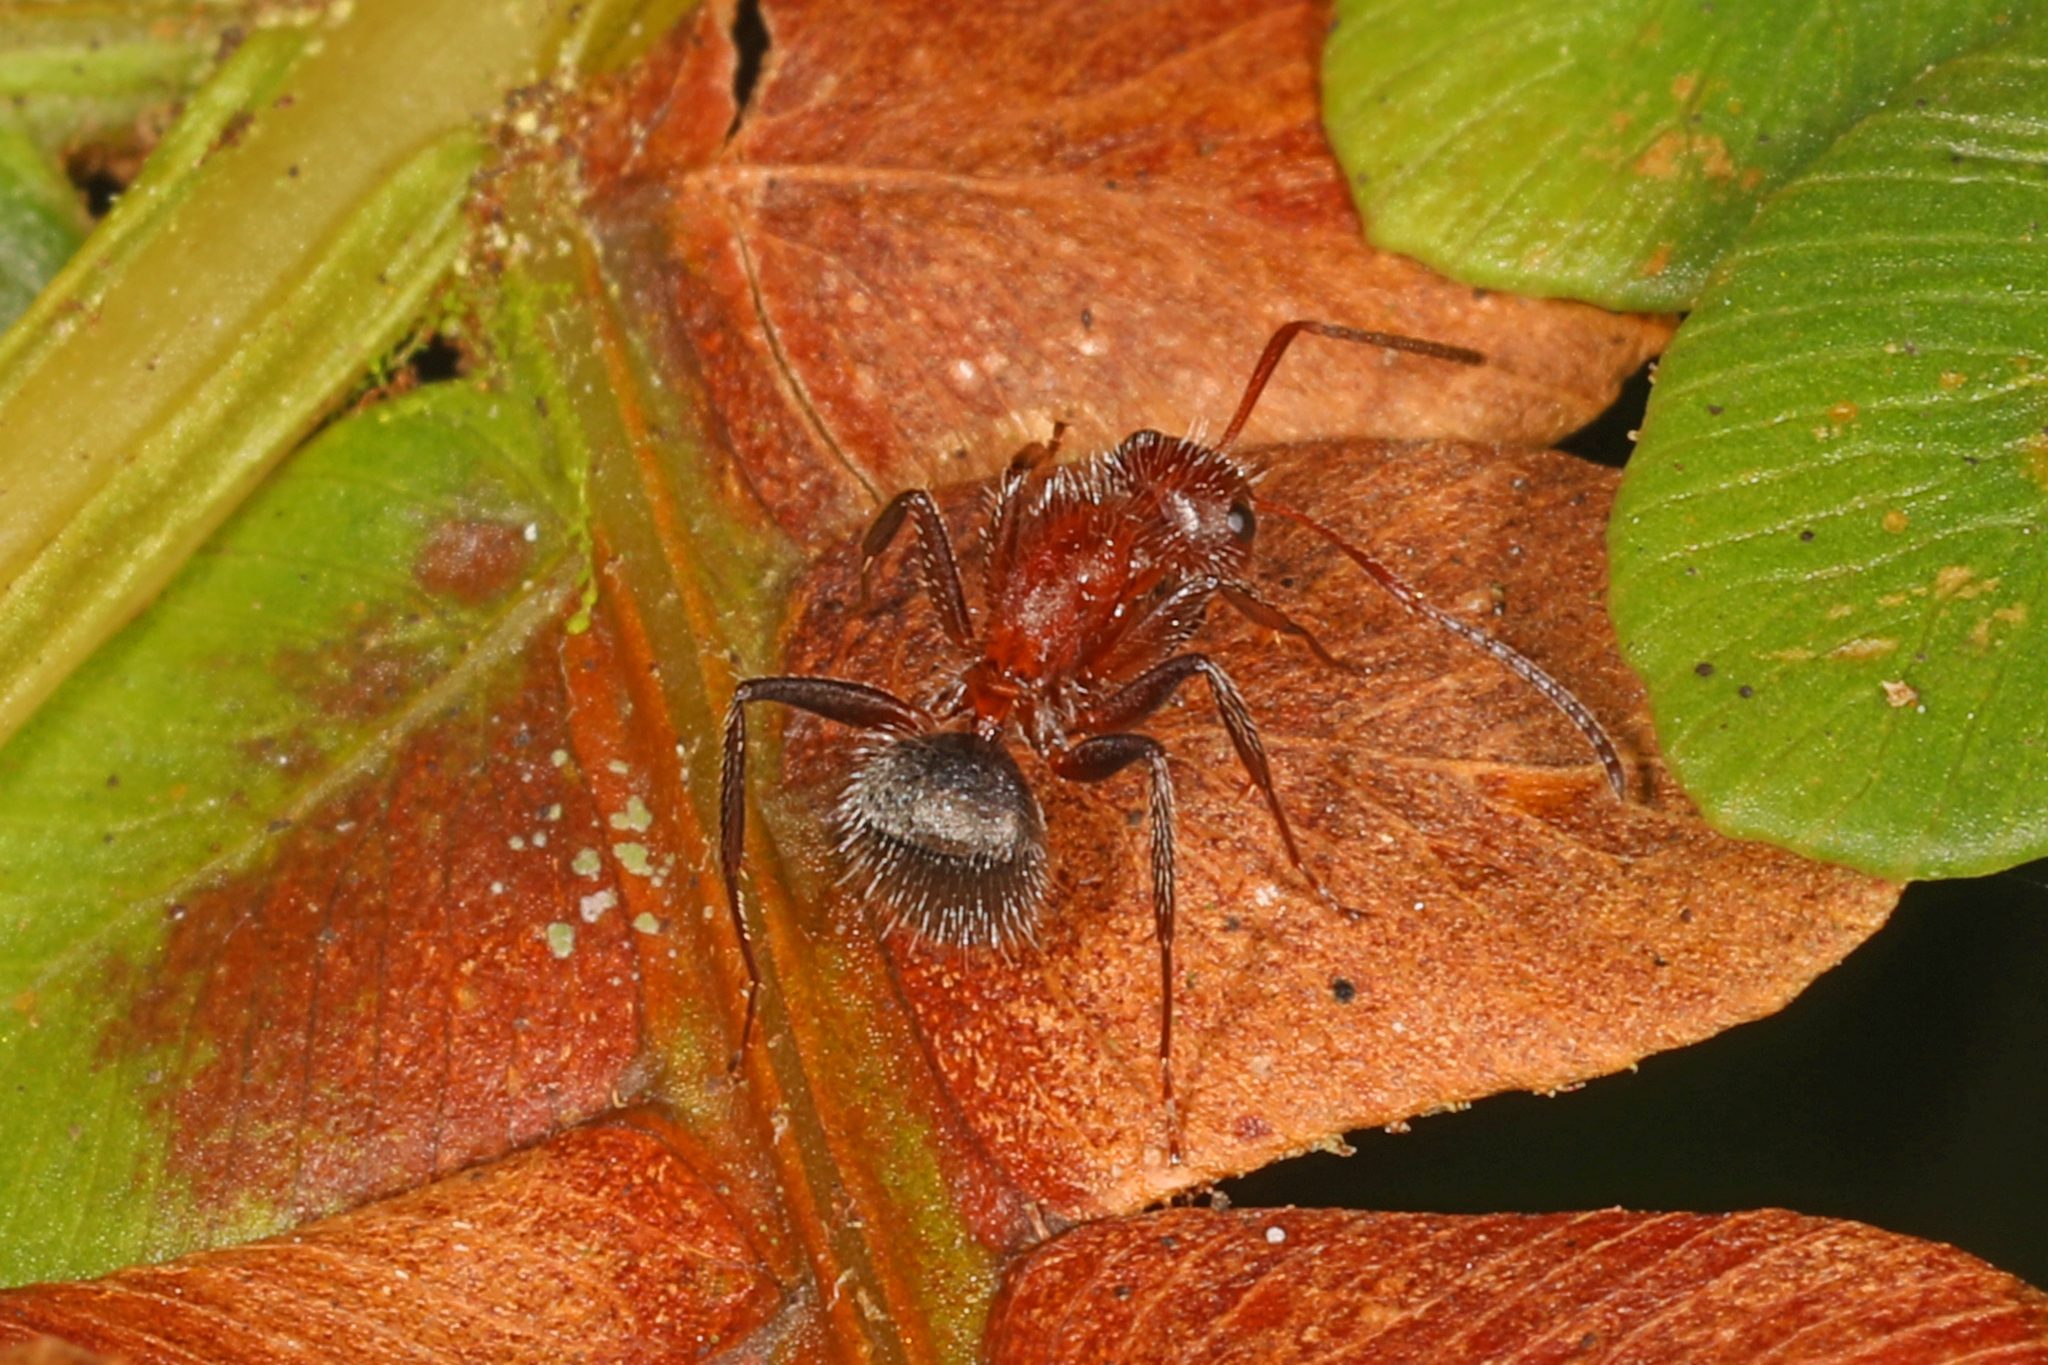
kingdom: Animalia
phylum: Arthropoda
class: Insecta
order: Hymenoptera
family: Formicidae
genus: Camponotus
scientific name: Camponotus planatus
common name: Compact carpenter ant
